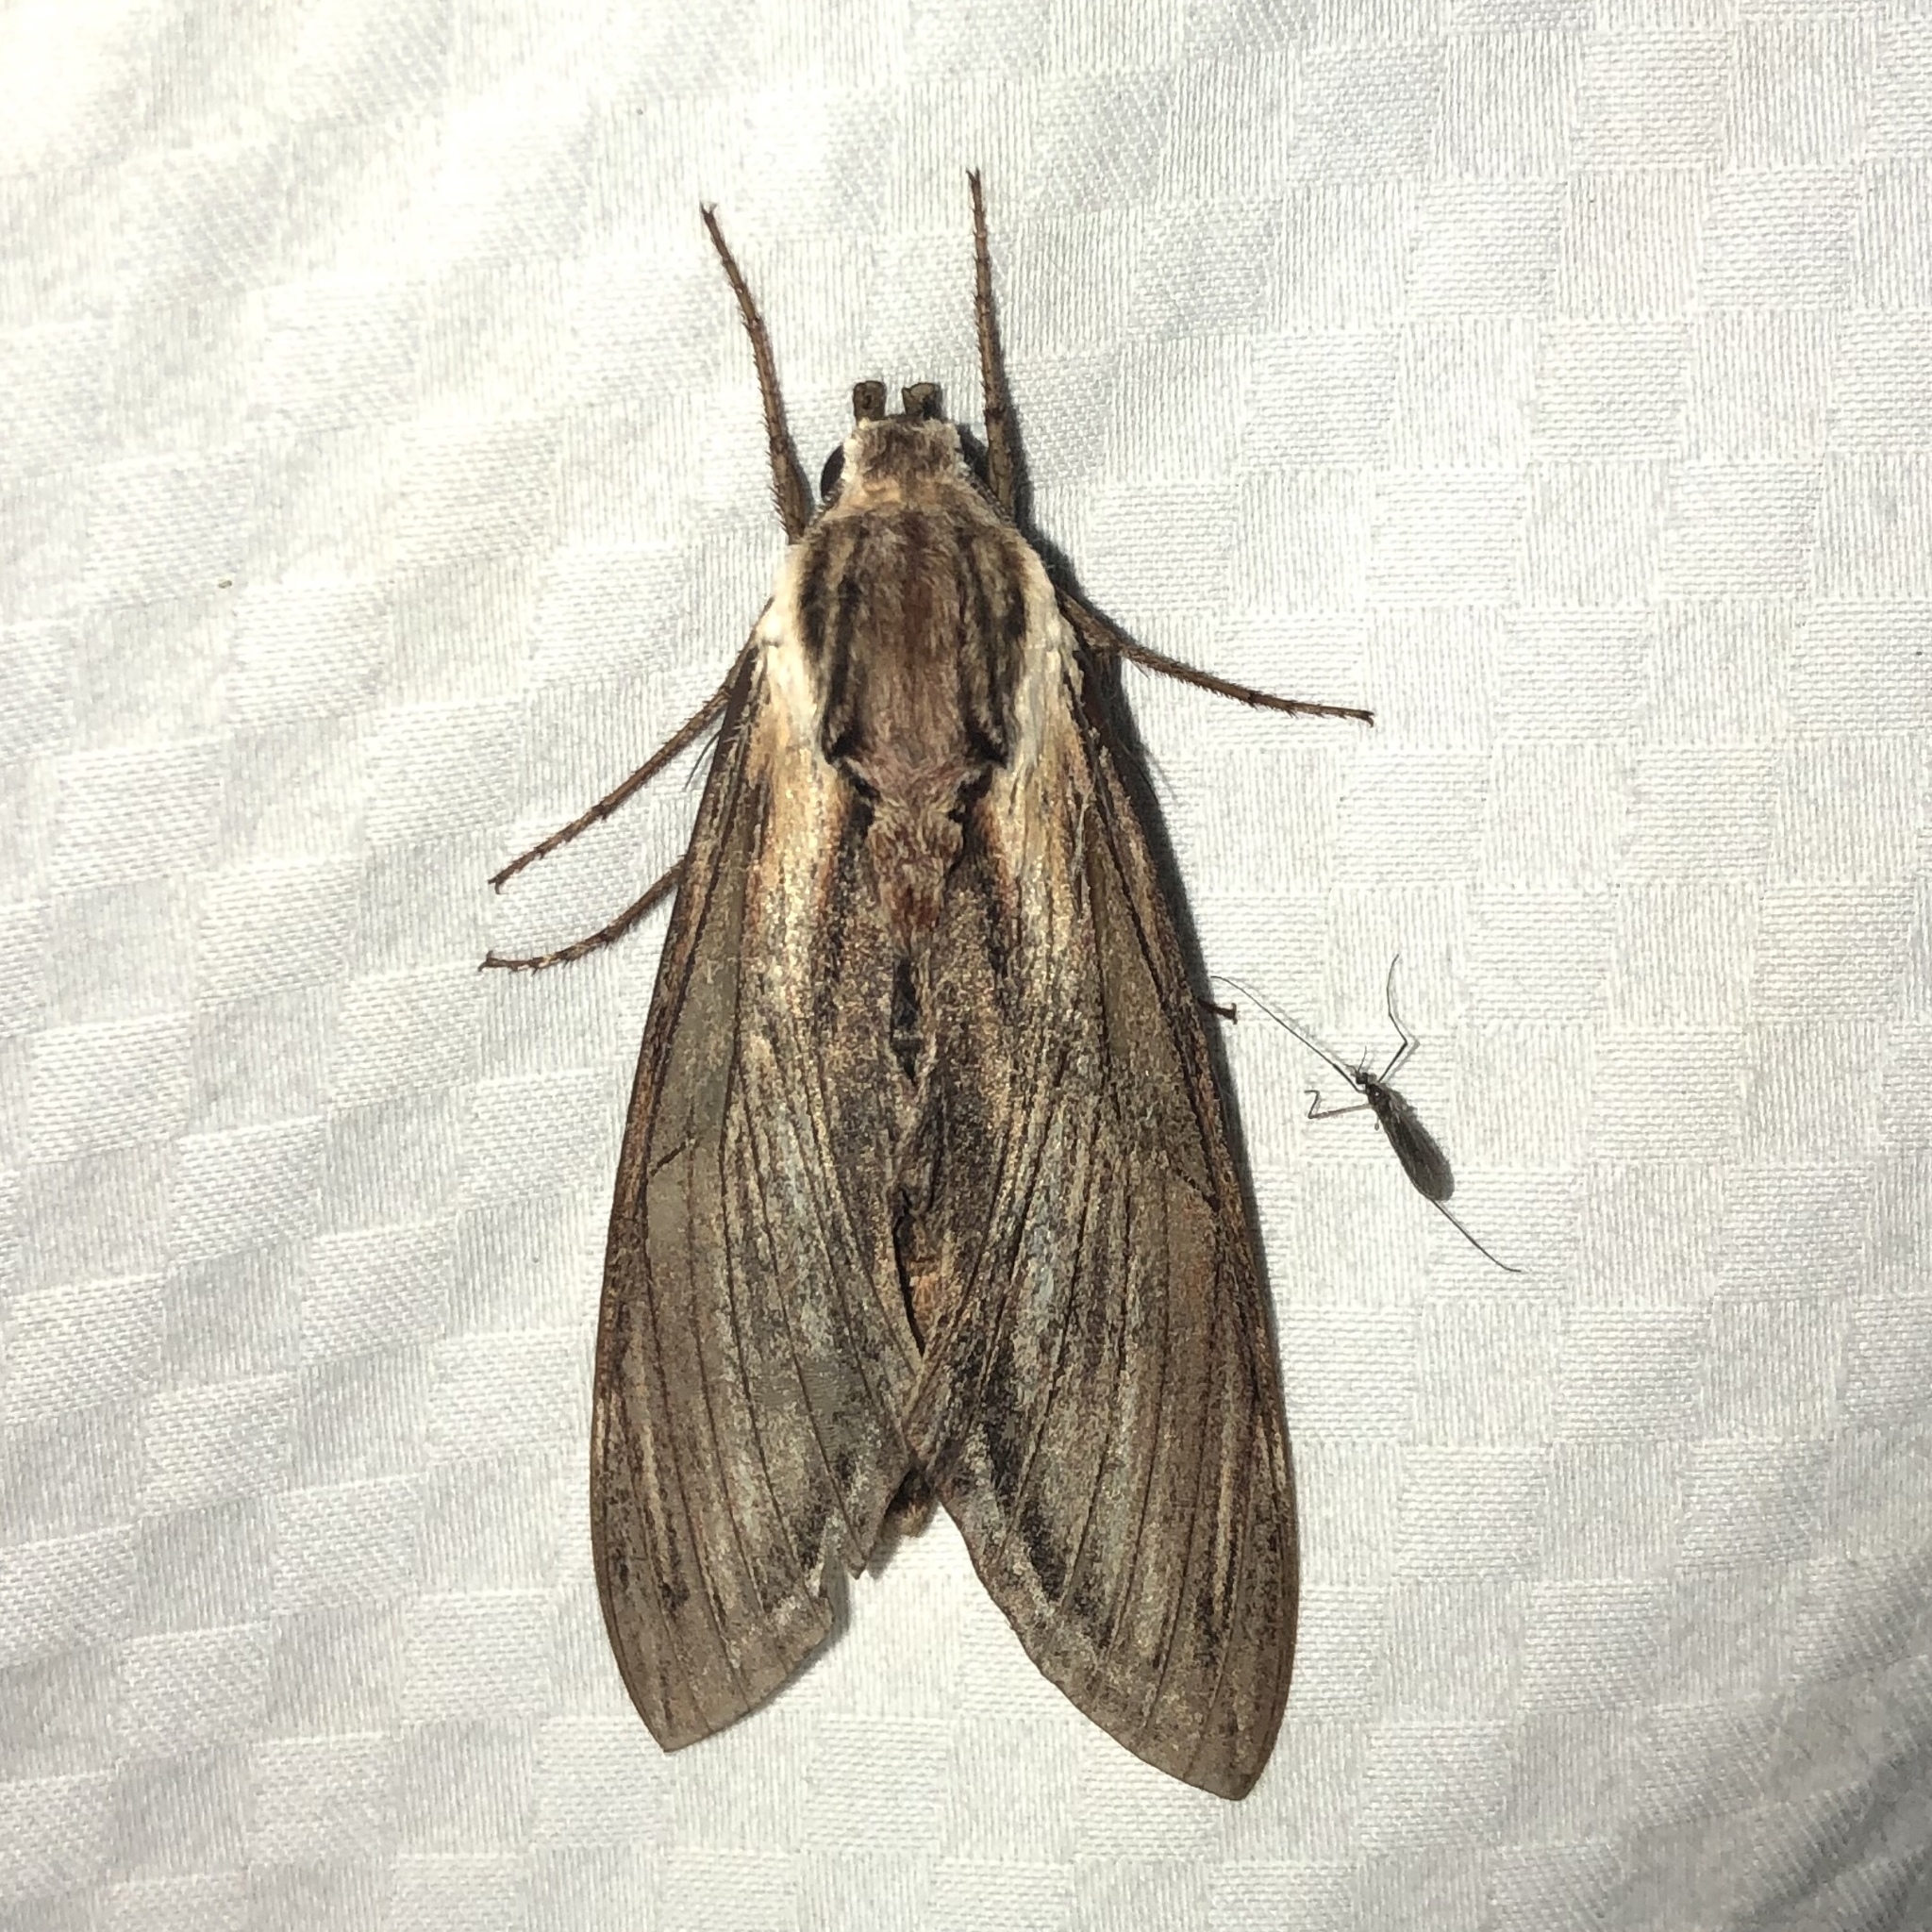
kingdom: Animalia
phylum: Arthropoda
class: Insecta
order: Lepidoptera
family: Sphingidae
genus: Sphinx
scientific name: Sphinx kalmiae
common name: Laurel sphinx
